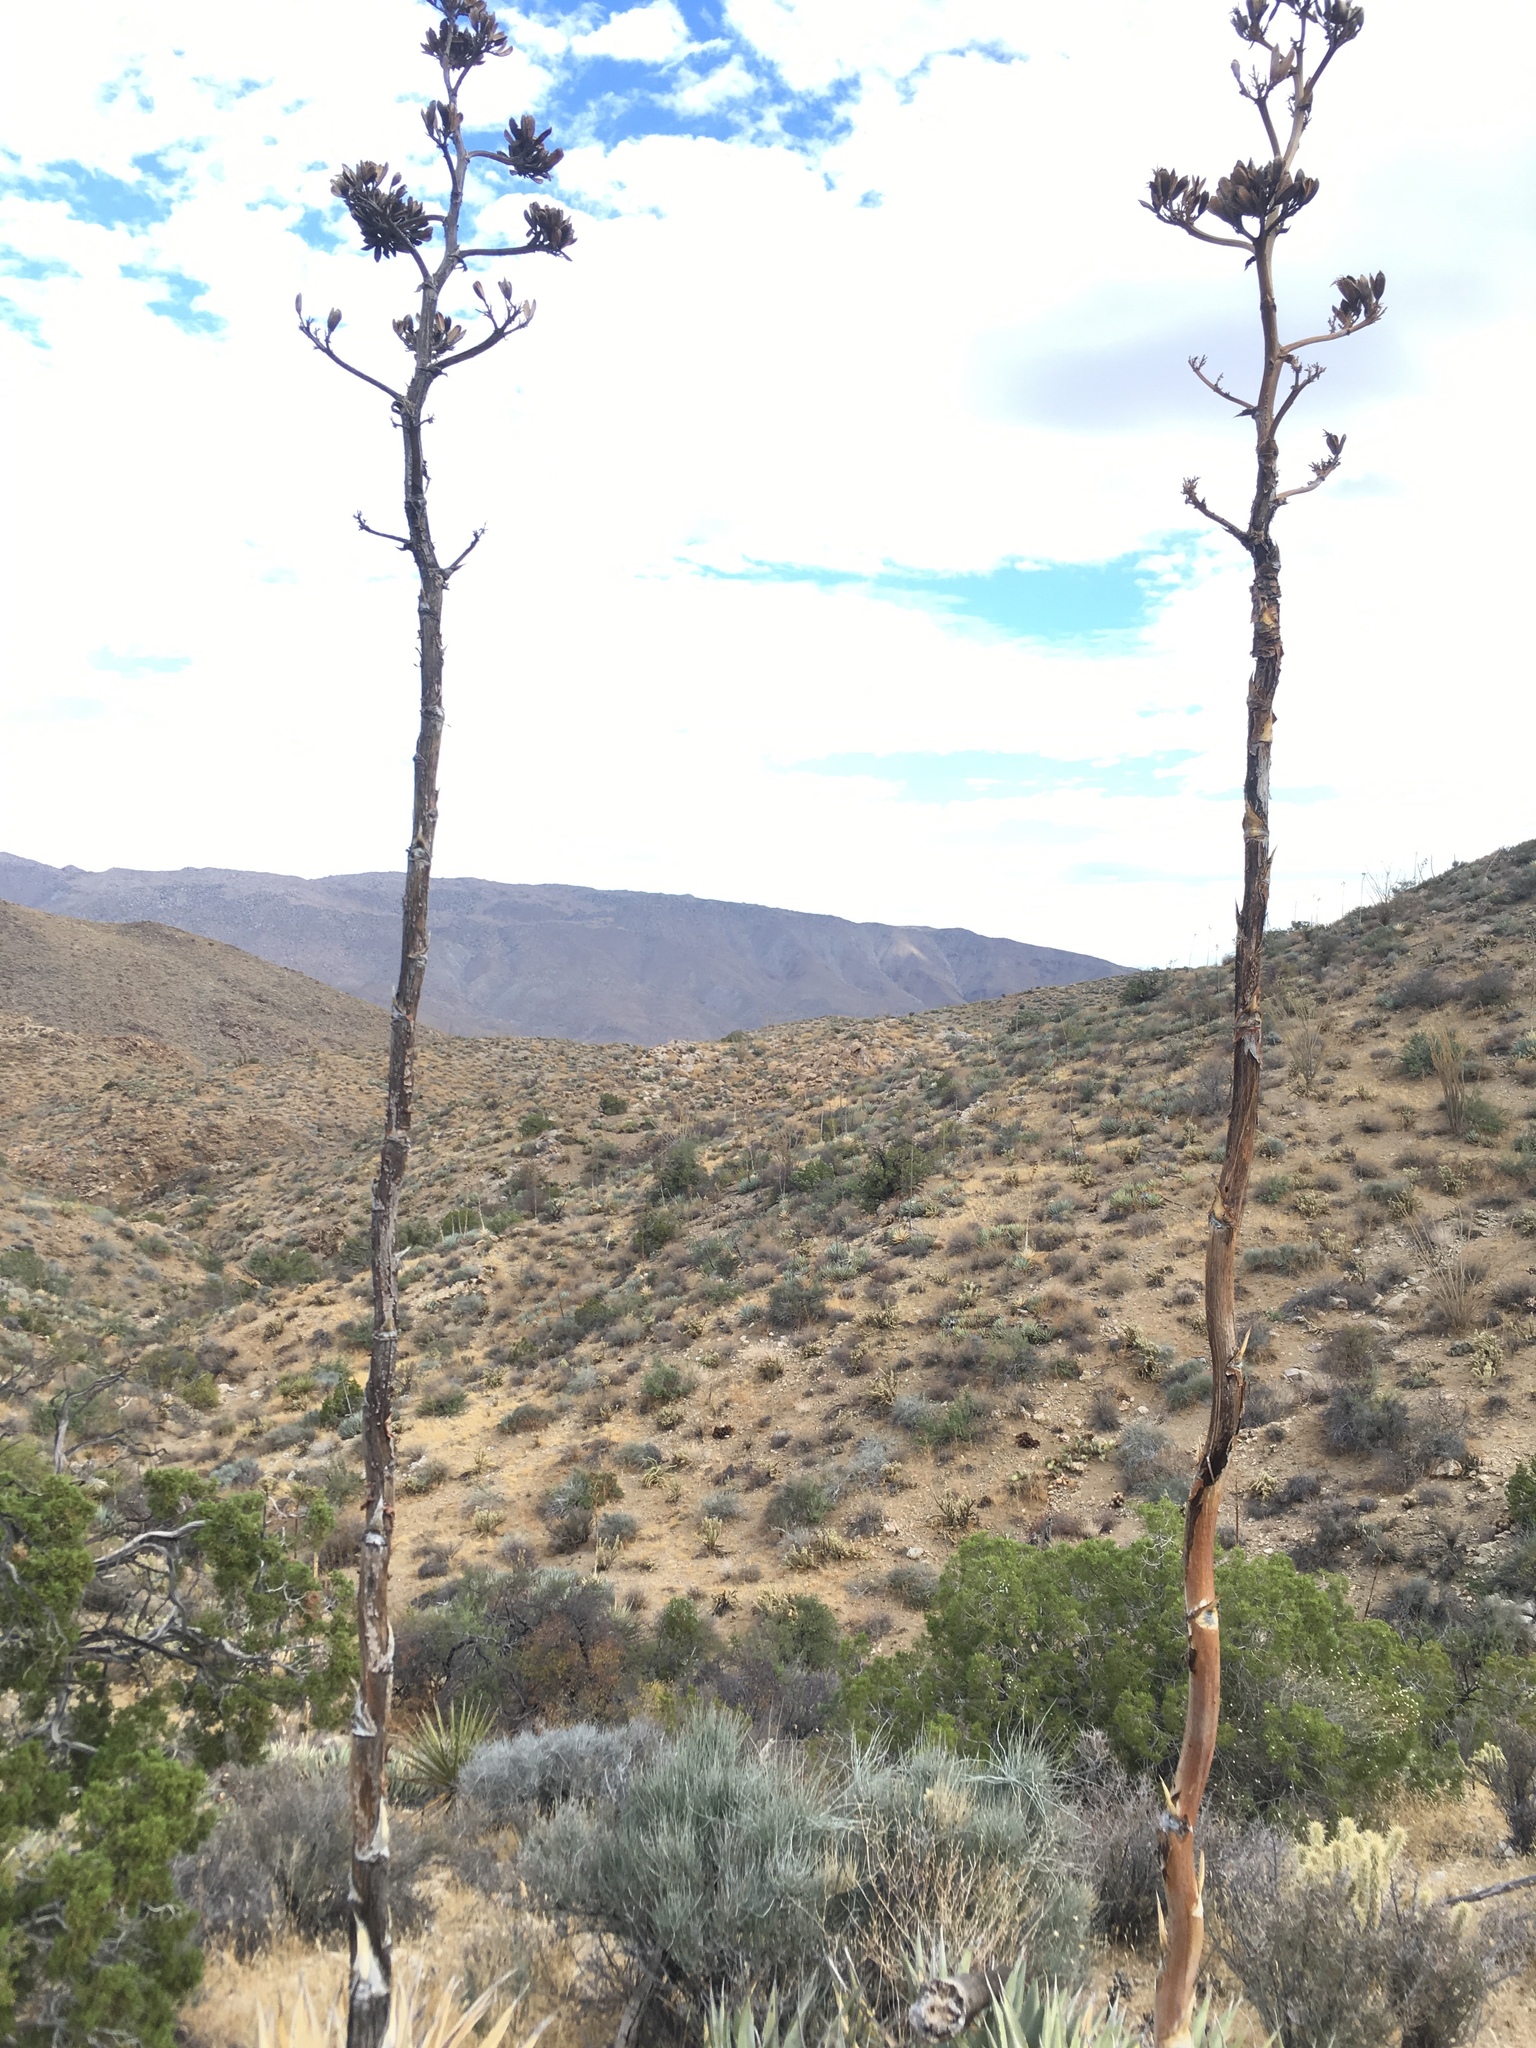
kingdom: Plantae
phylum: Tracheophyta
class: Liliopsida
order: Asparagales
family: Asparagaceae
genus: Agave
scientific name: Agave deserti
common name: Desert agave
